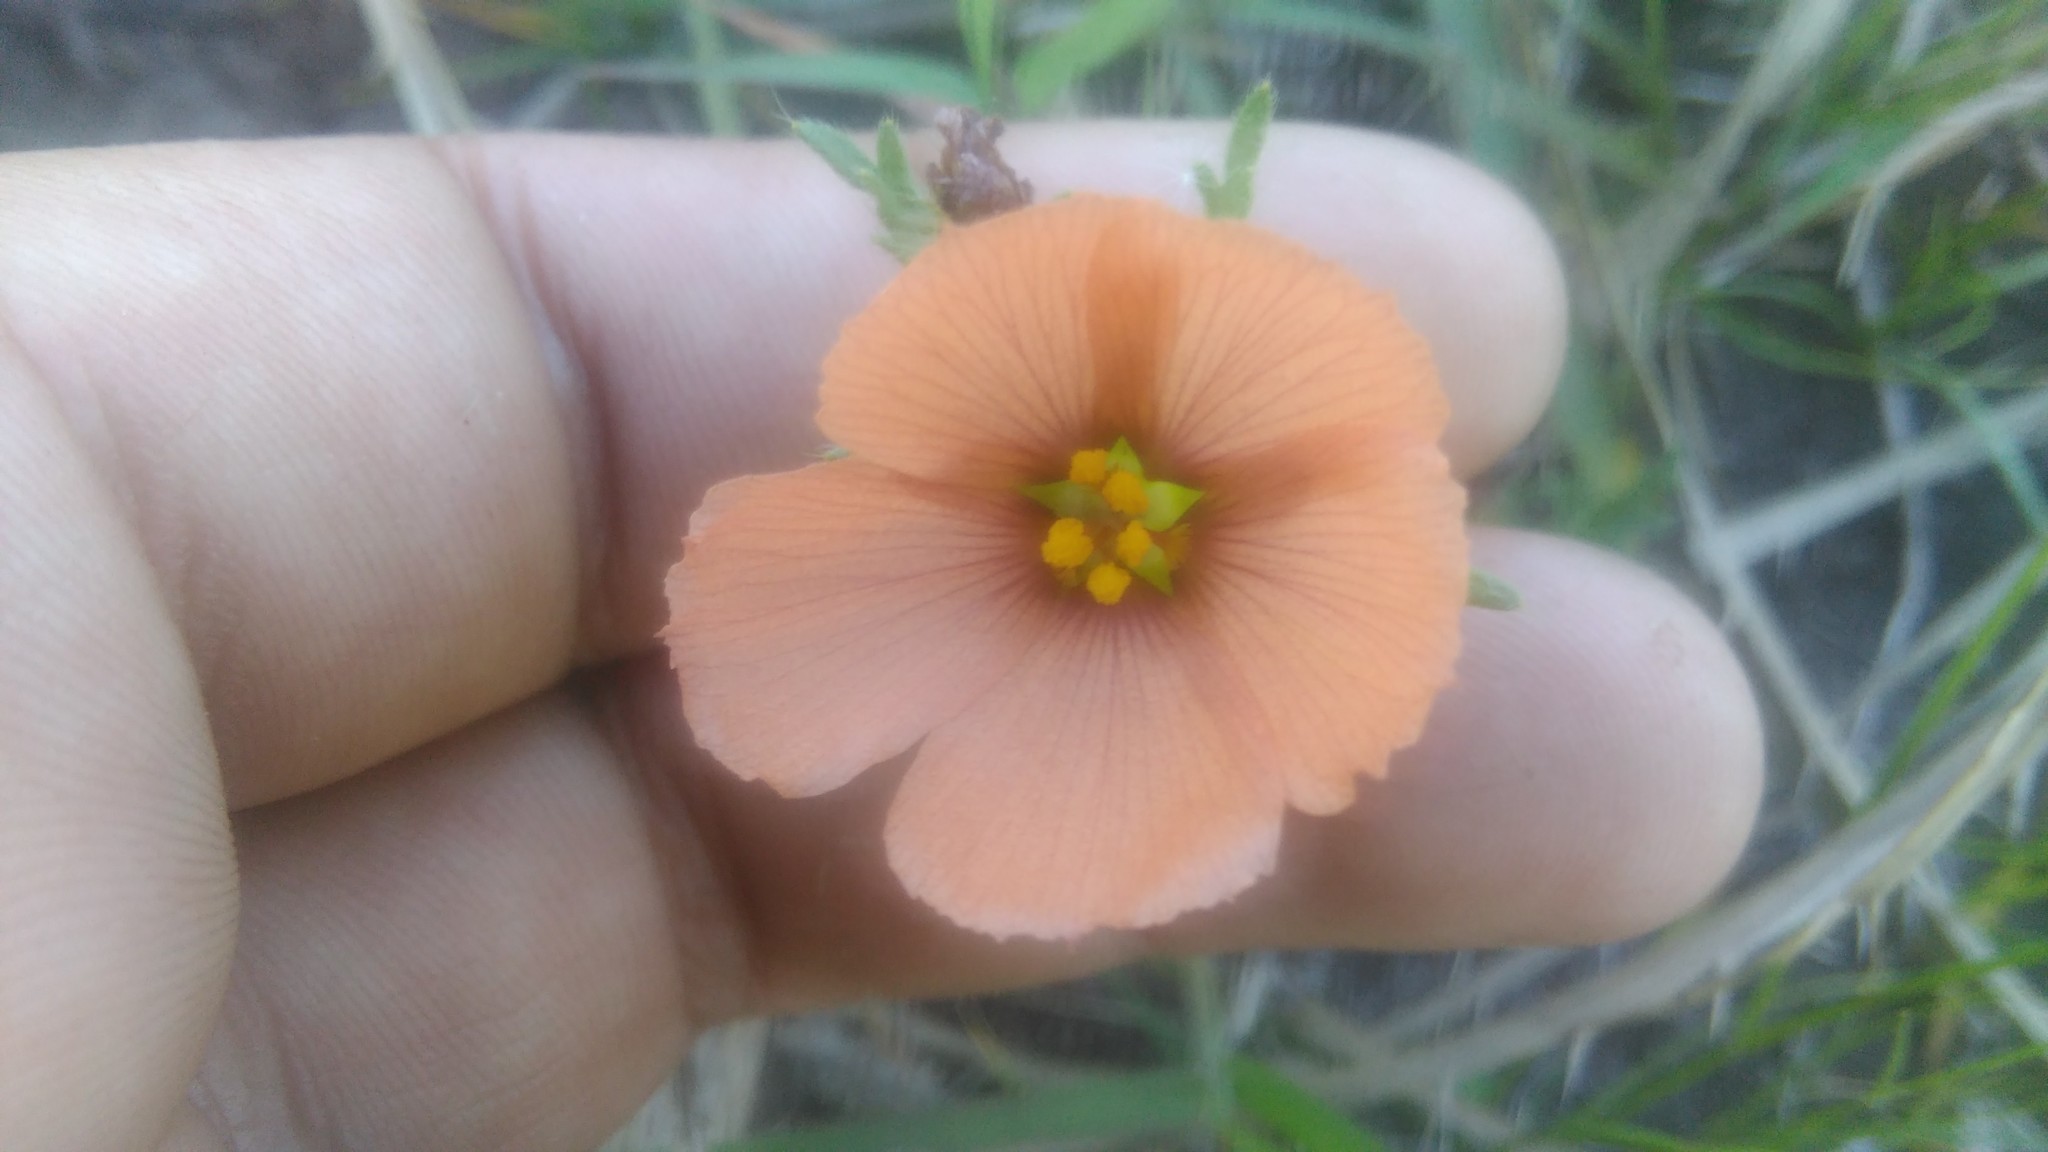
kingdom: Plantae
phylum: Tracheophyta
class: Magnoliopsida
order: Malpighiales
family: Turneraceae
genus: Turnera
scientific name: Turnera sidoides
